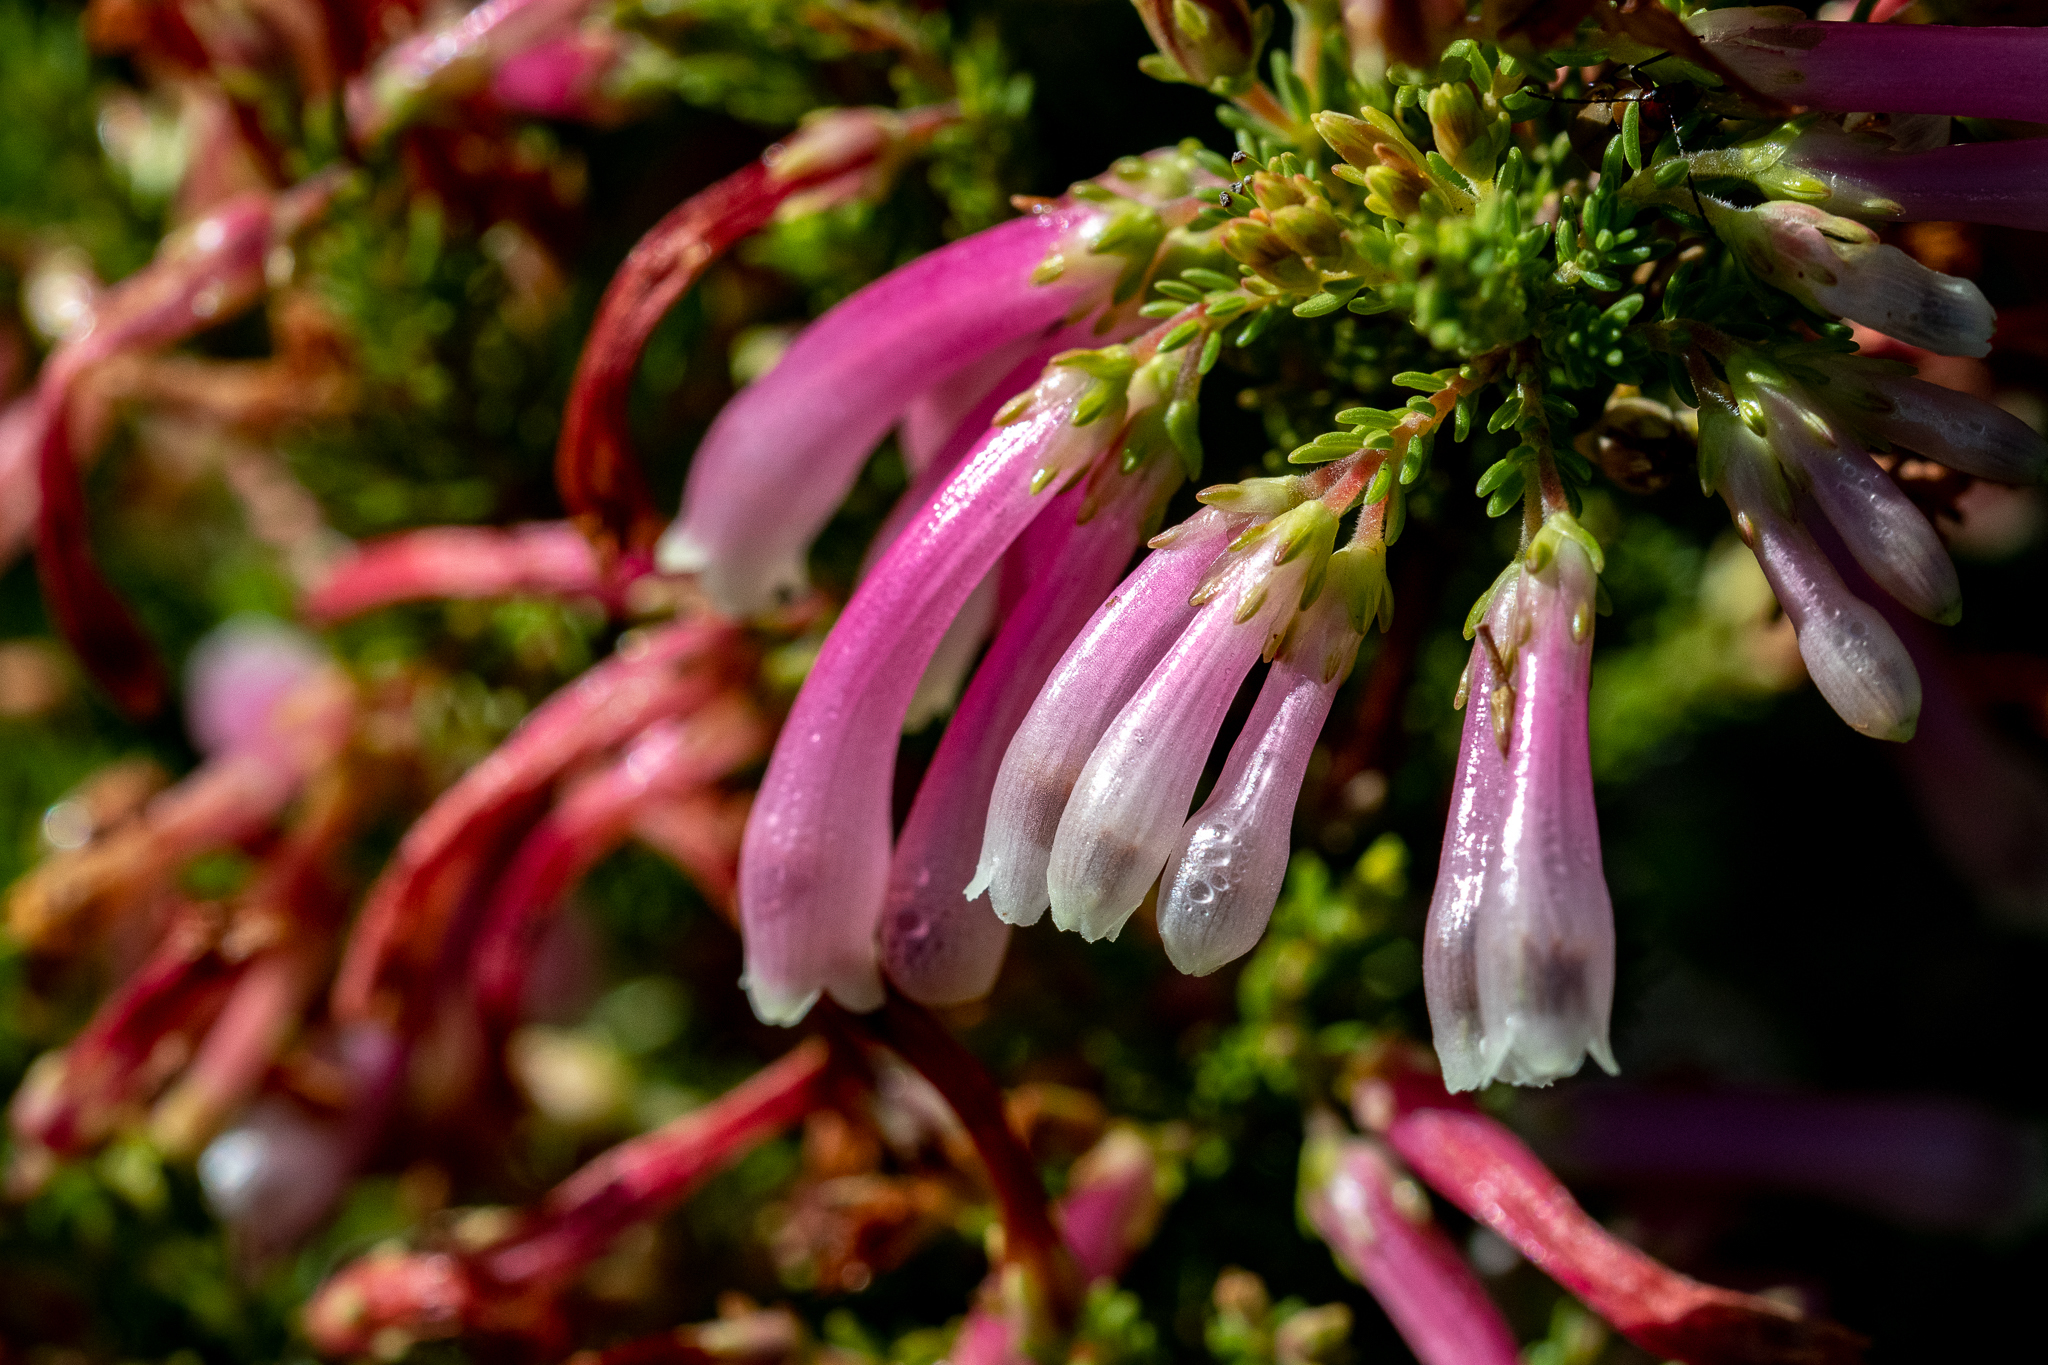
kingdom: Plantae
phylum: Tracheophyta
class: Magnoliopsida
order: Ericales
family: Ericaceae
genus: Erica
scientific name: Erica discolor
